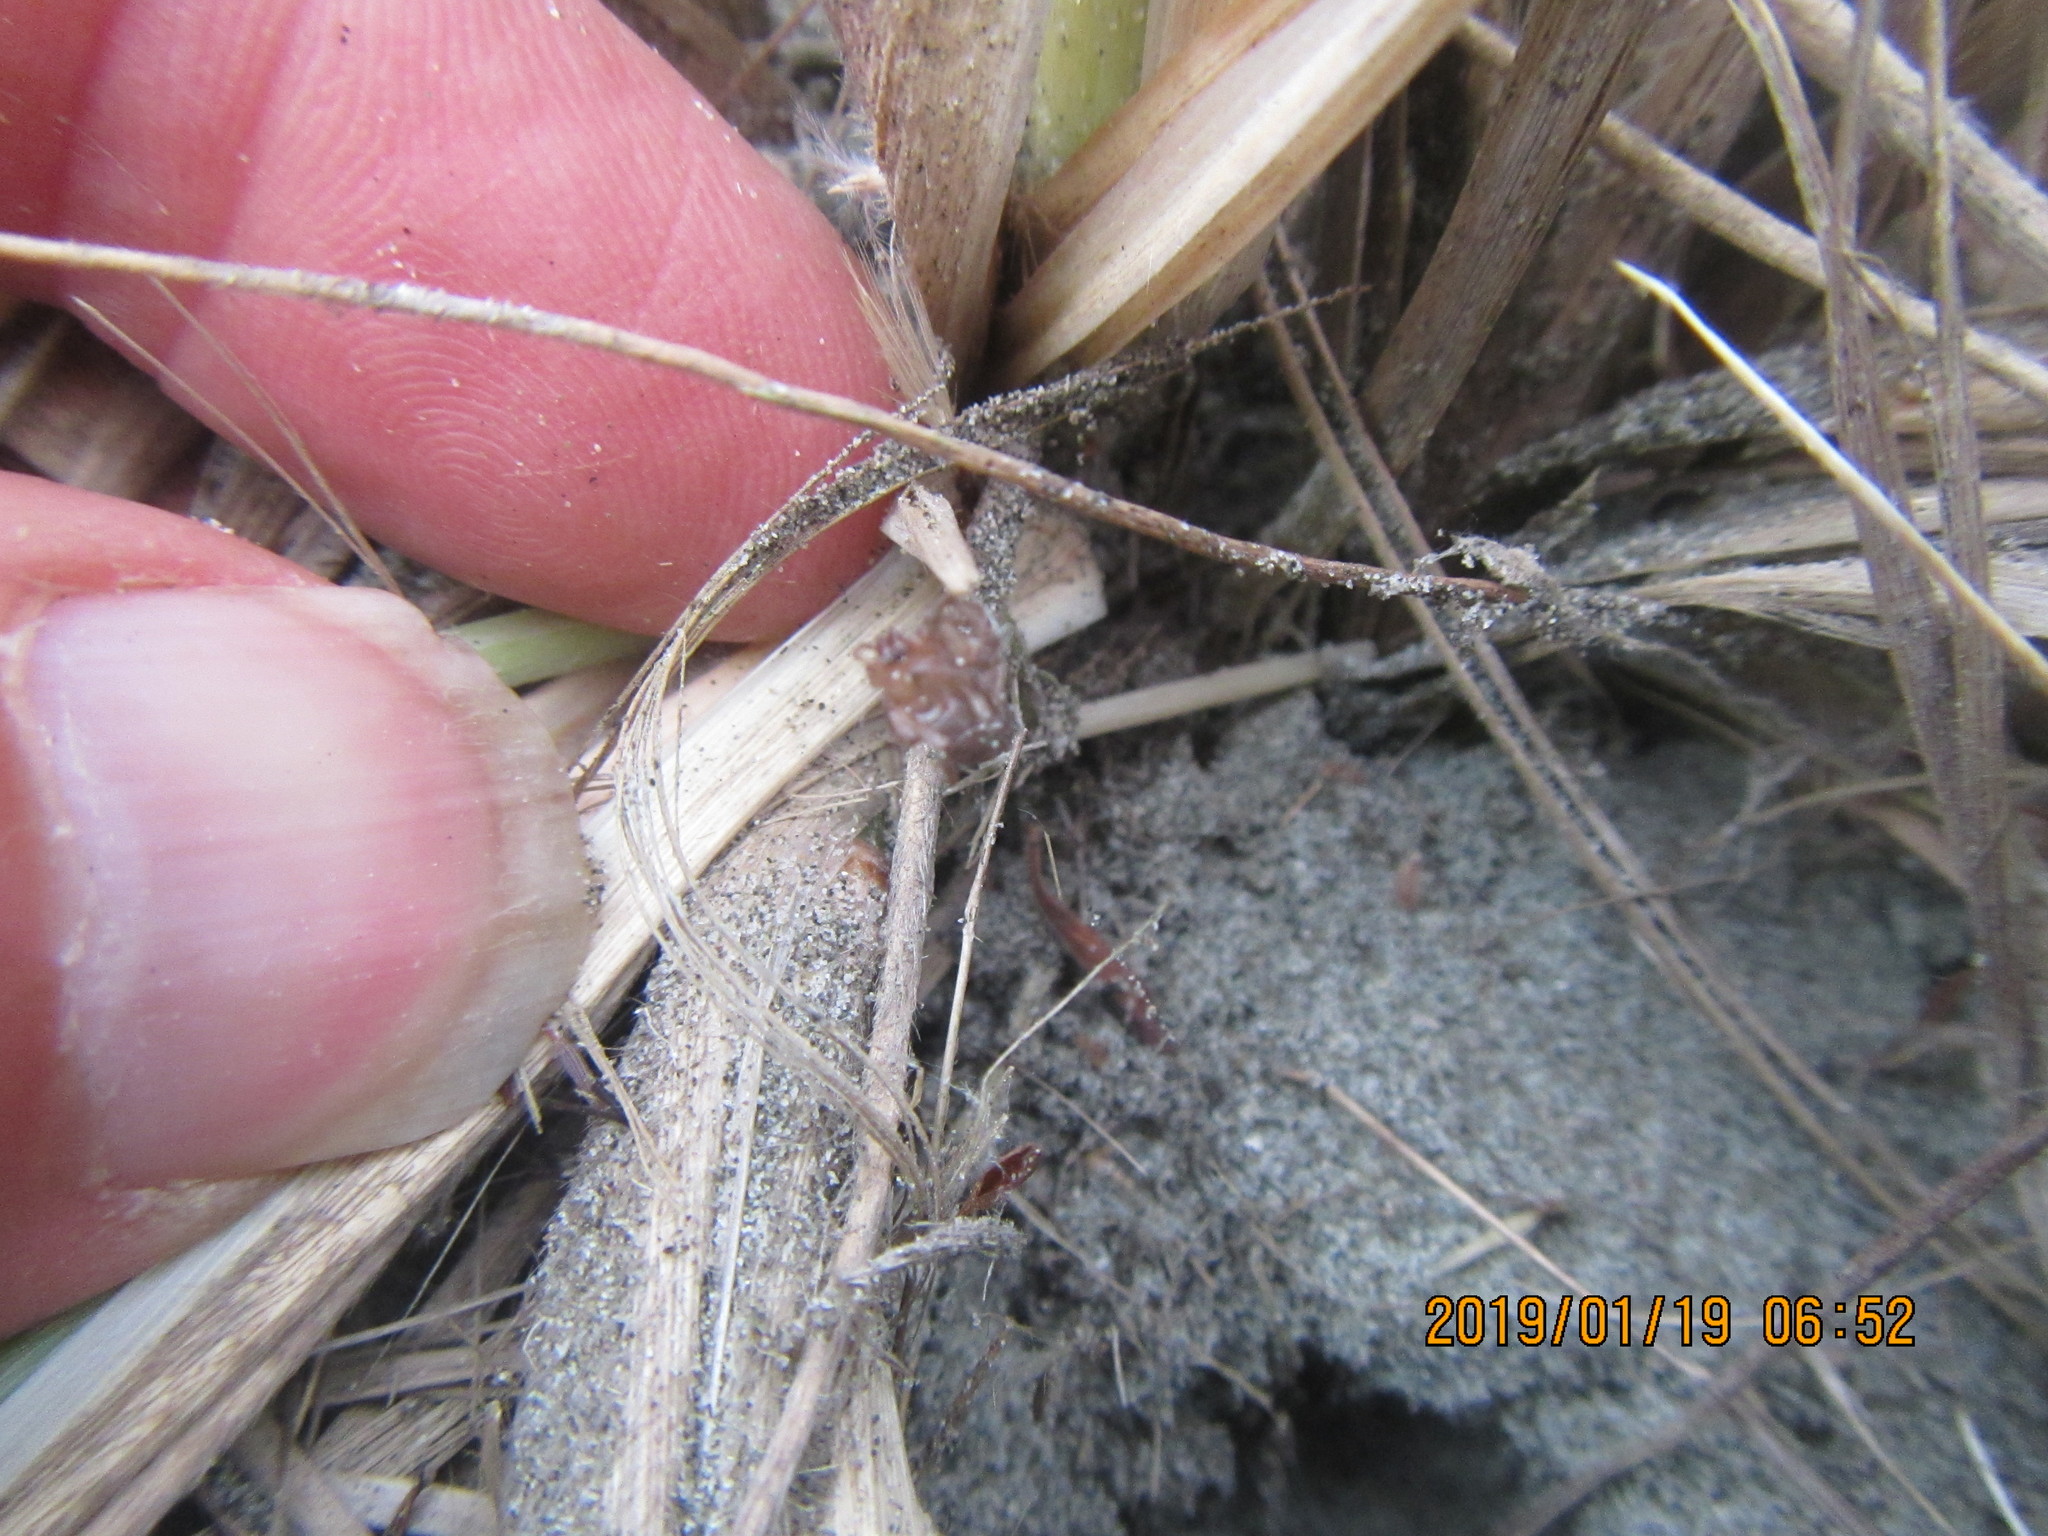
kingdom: Animalia
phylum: Arthropoda
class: Arachnida
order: Araneae
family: Theridiidae
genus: Steatoda
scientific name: Steatoda capensis
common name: Cobweb weaver
